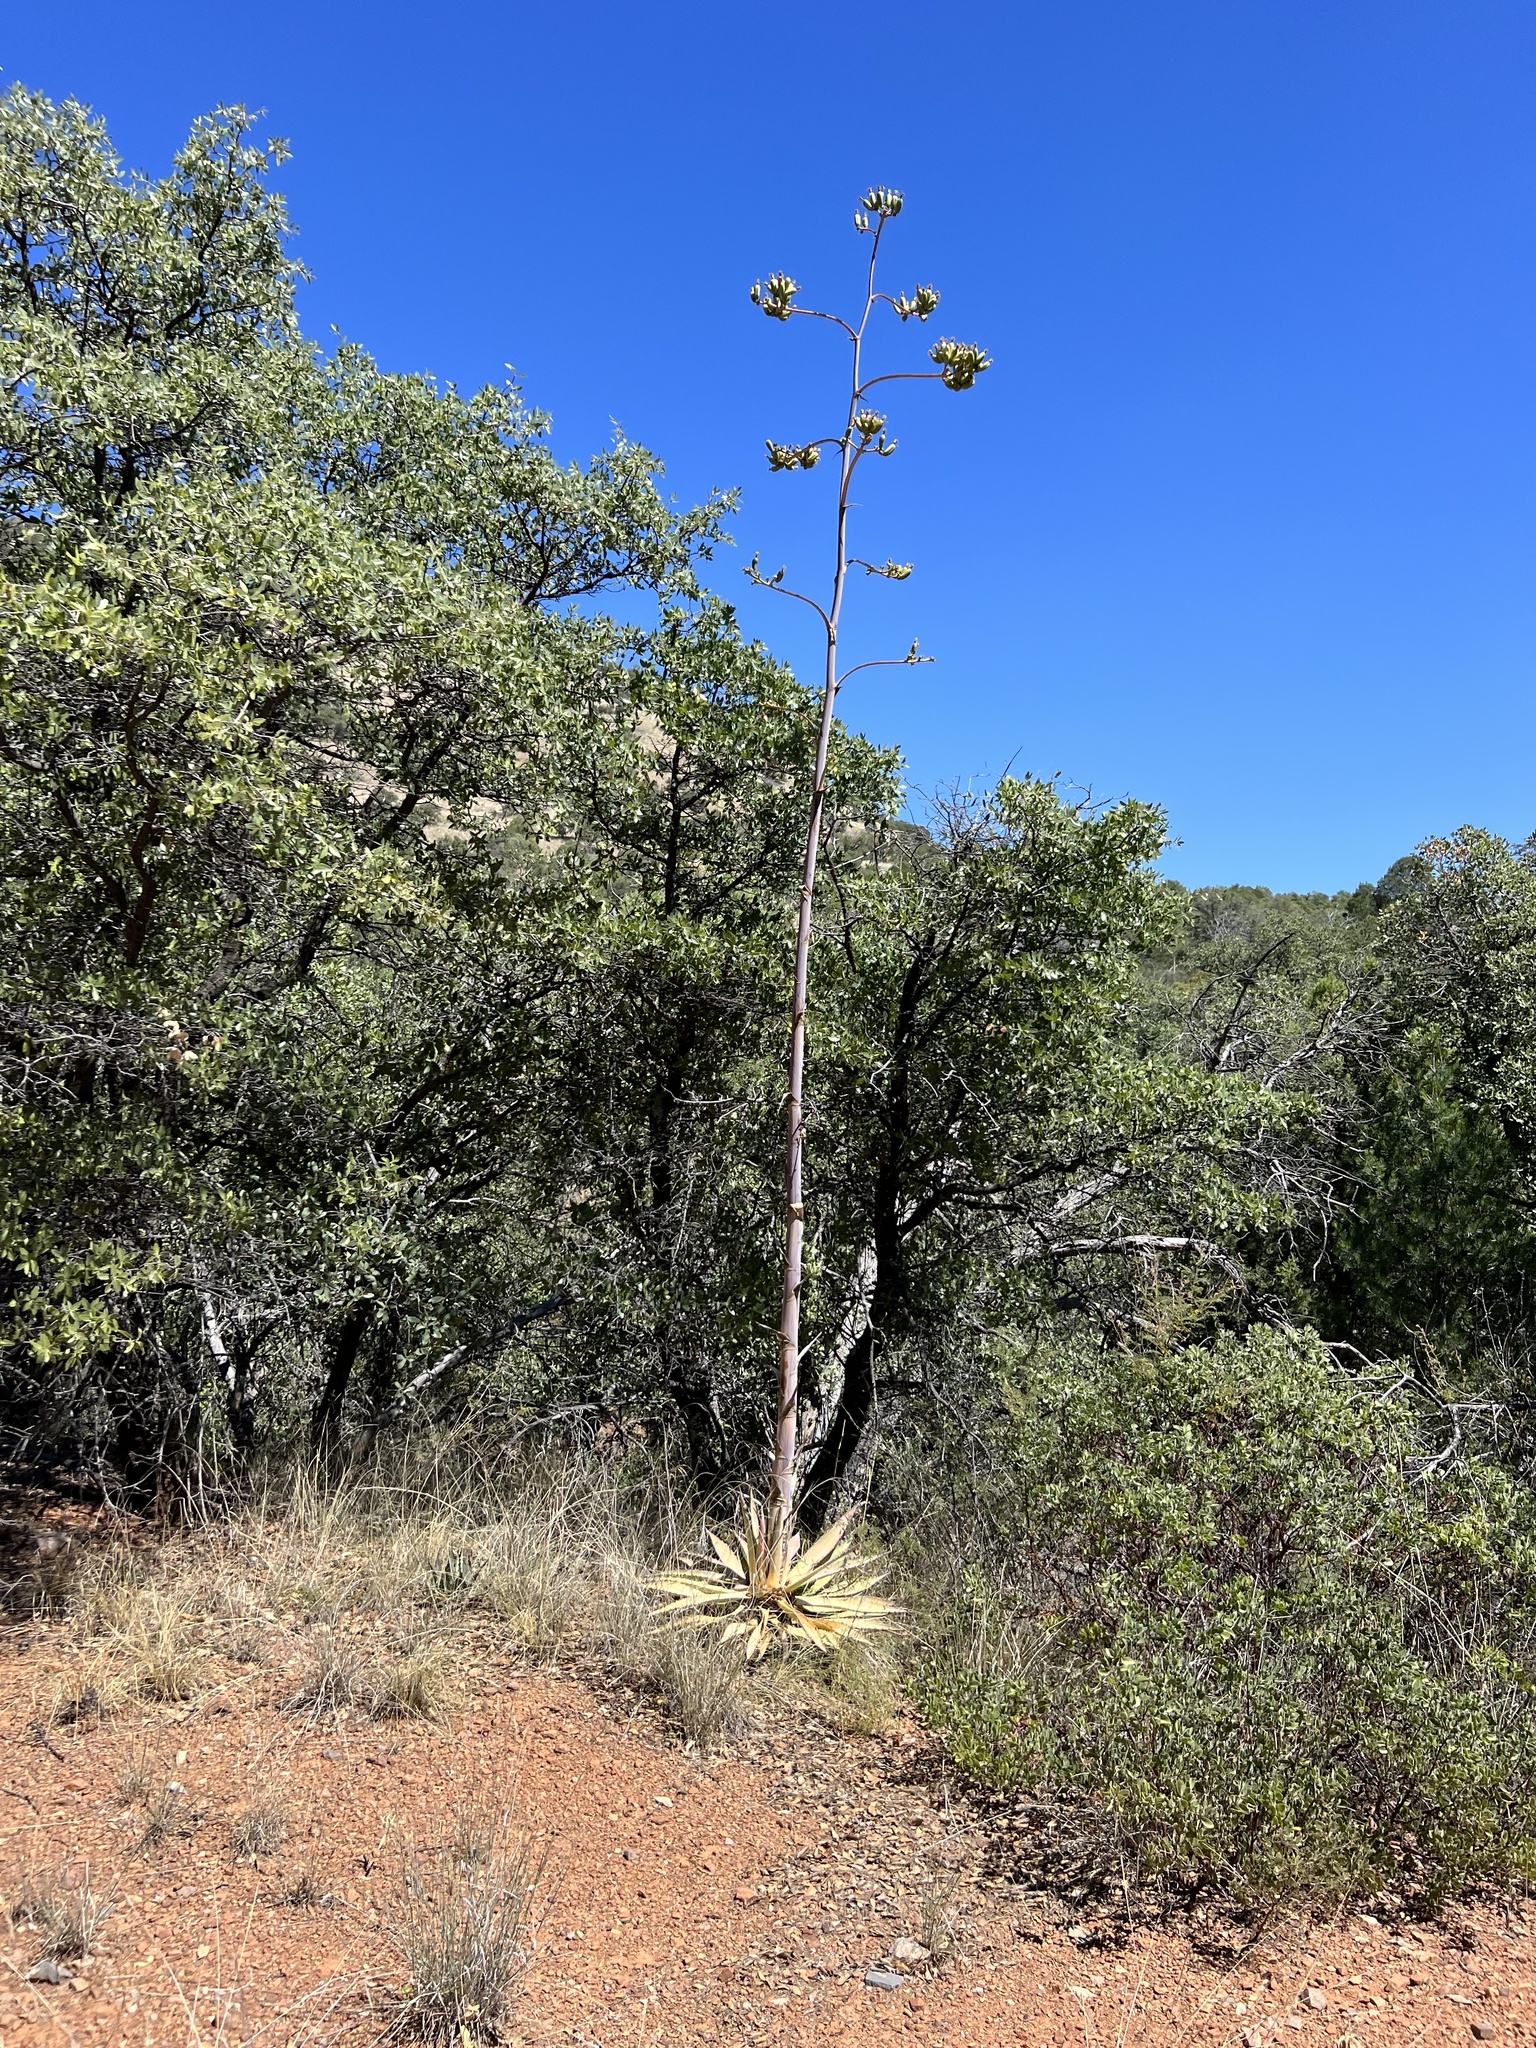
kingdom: Plantae
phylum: Tracheophyta
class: Liliopsida
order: Asparagales
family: Asparagaceae
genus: Agave
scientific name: Agave palmeri
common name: Palmer agave
